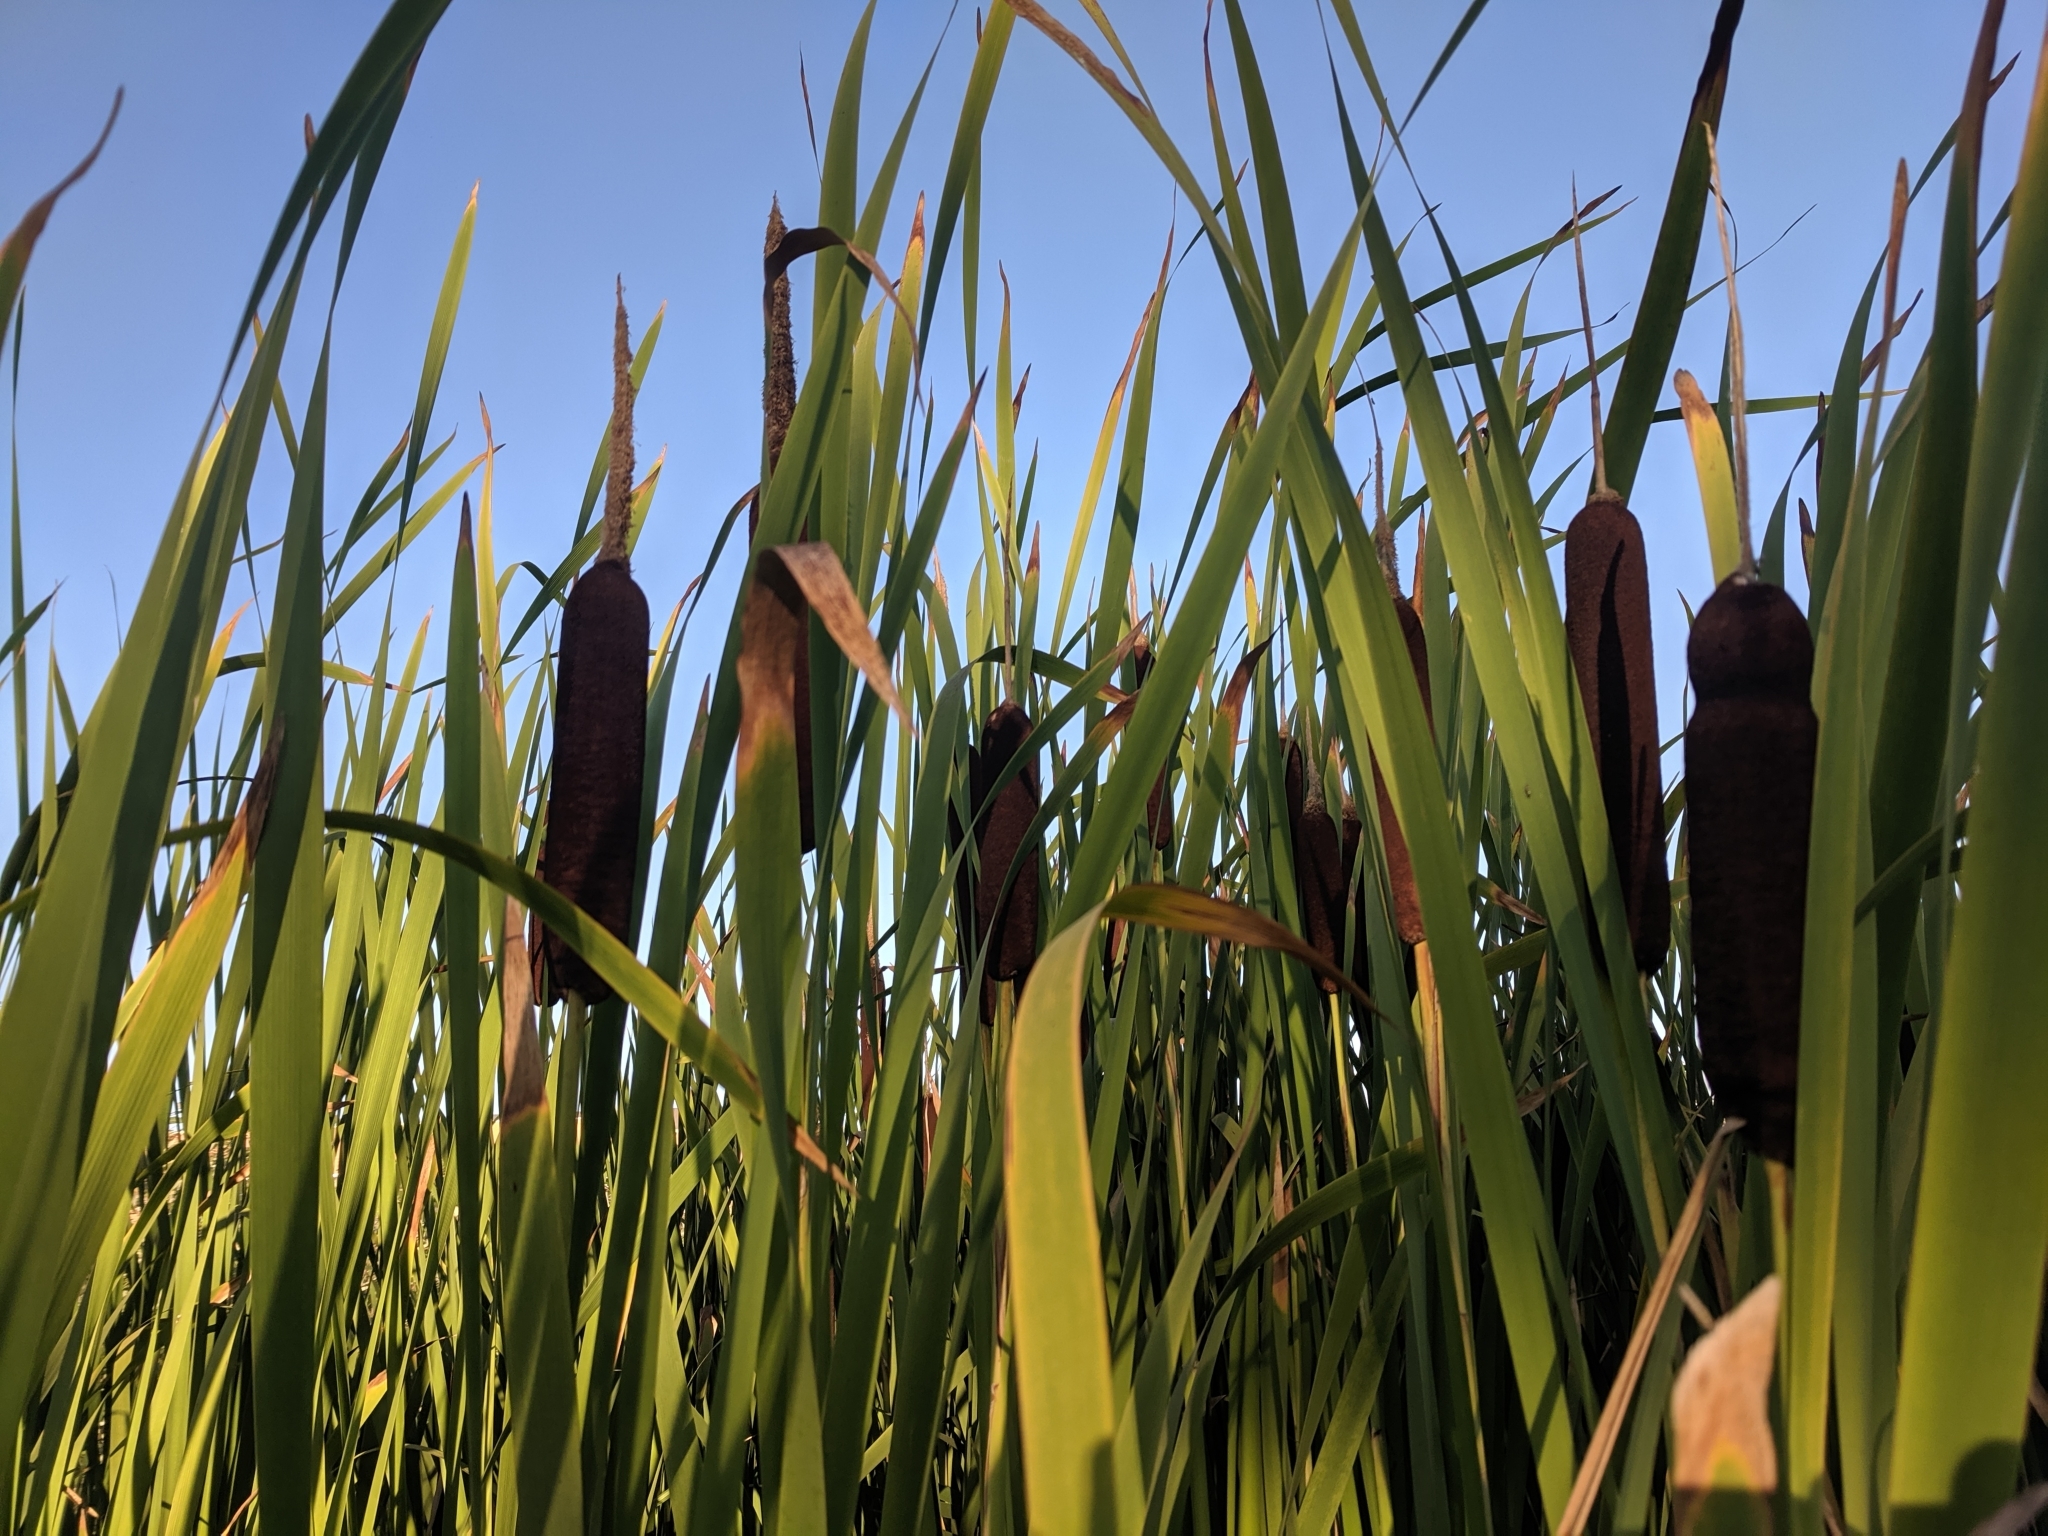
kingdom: Plantae
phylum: Tracheophyta
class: Liliopsida
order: Poales
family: Typhaceae
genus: Typha
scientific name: Typha latifolia
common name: Broadleaf cattail
